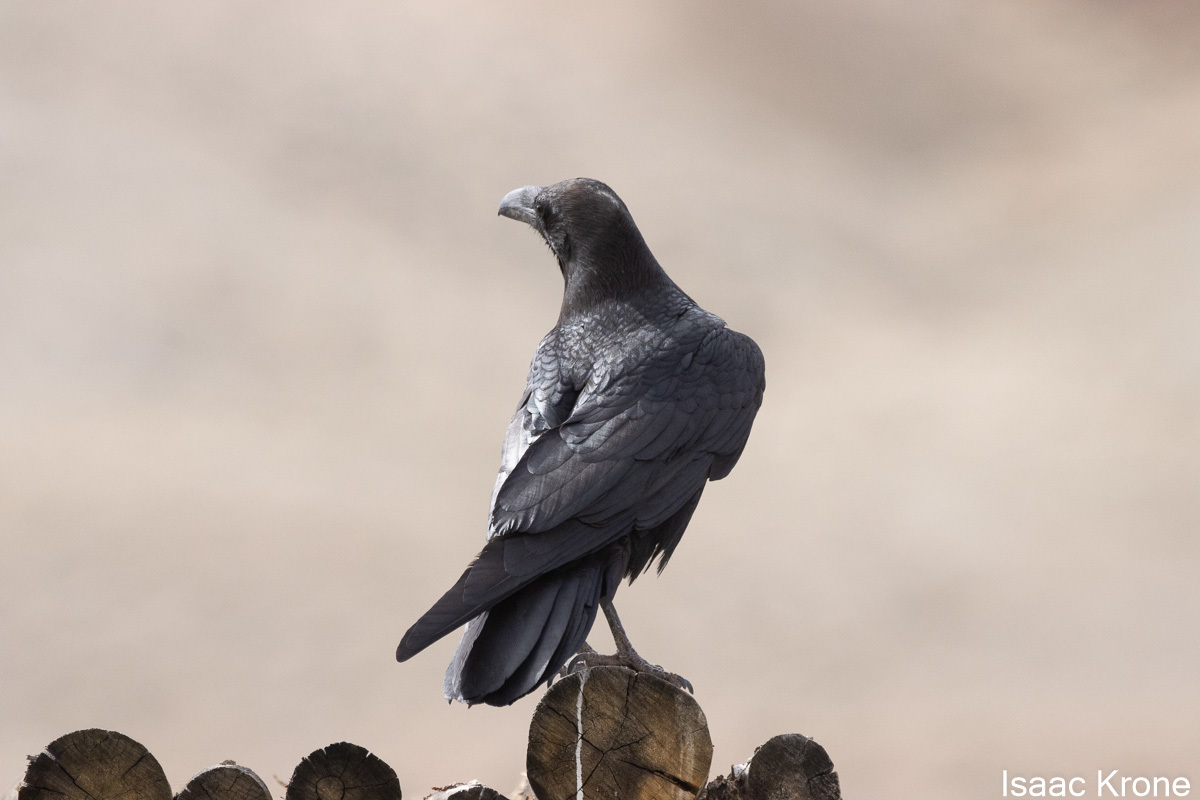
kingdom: Animalia
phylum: Chordata
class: Aves
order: Passeriformes
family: Corvidae
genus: Corvus
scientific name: Corvus corax
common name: Common raven
